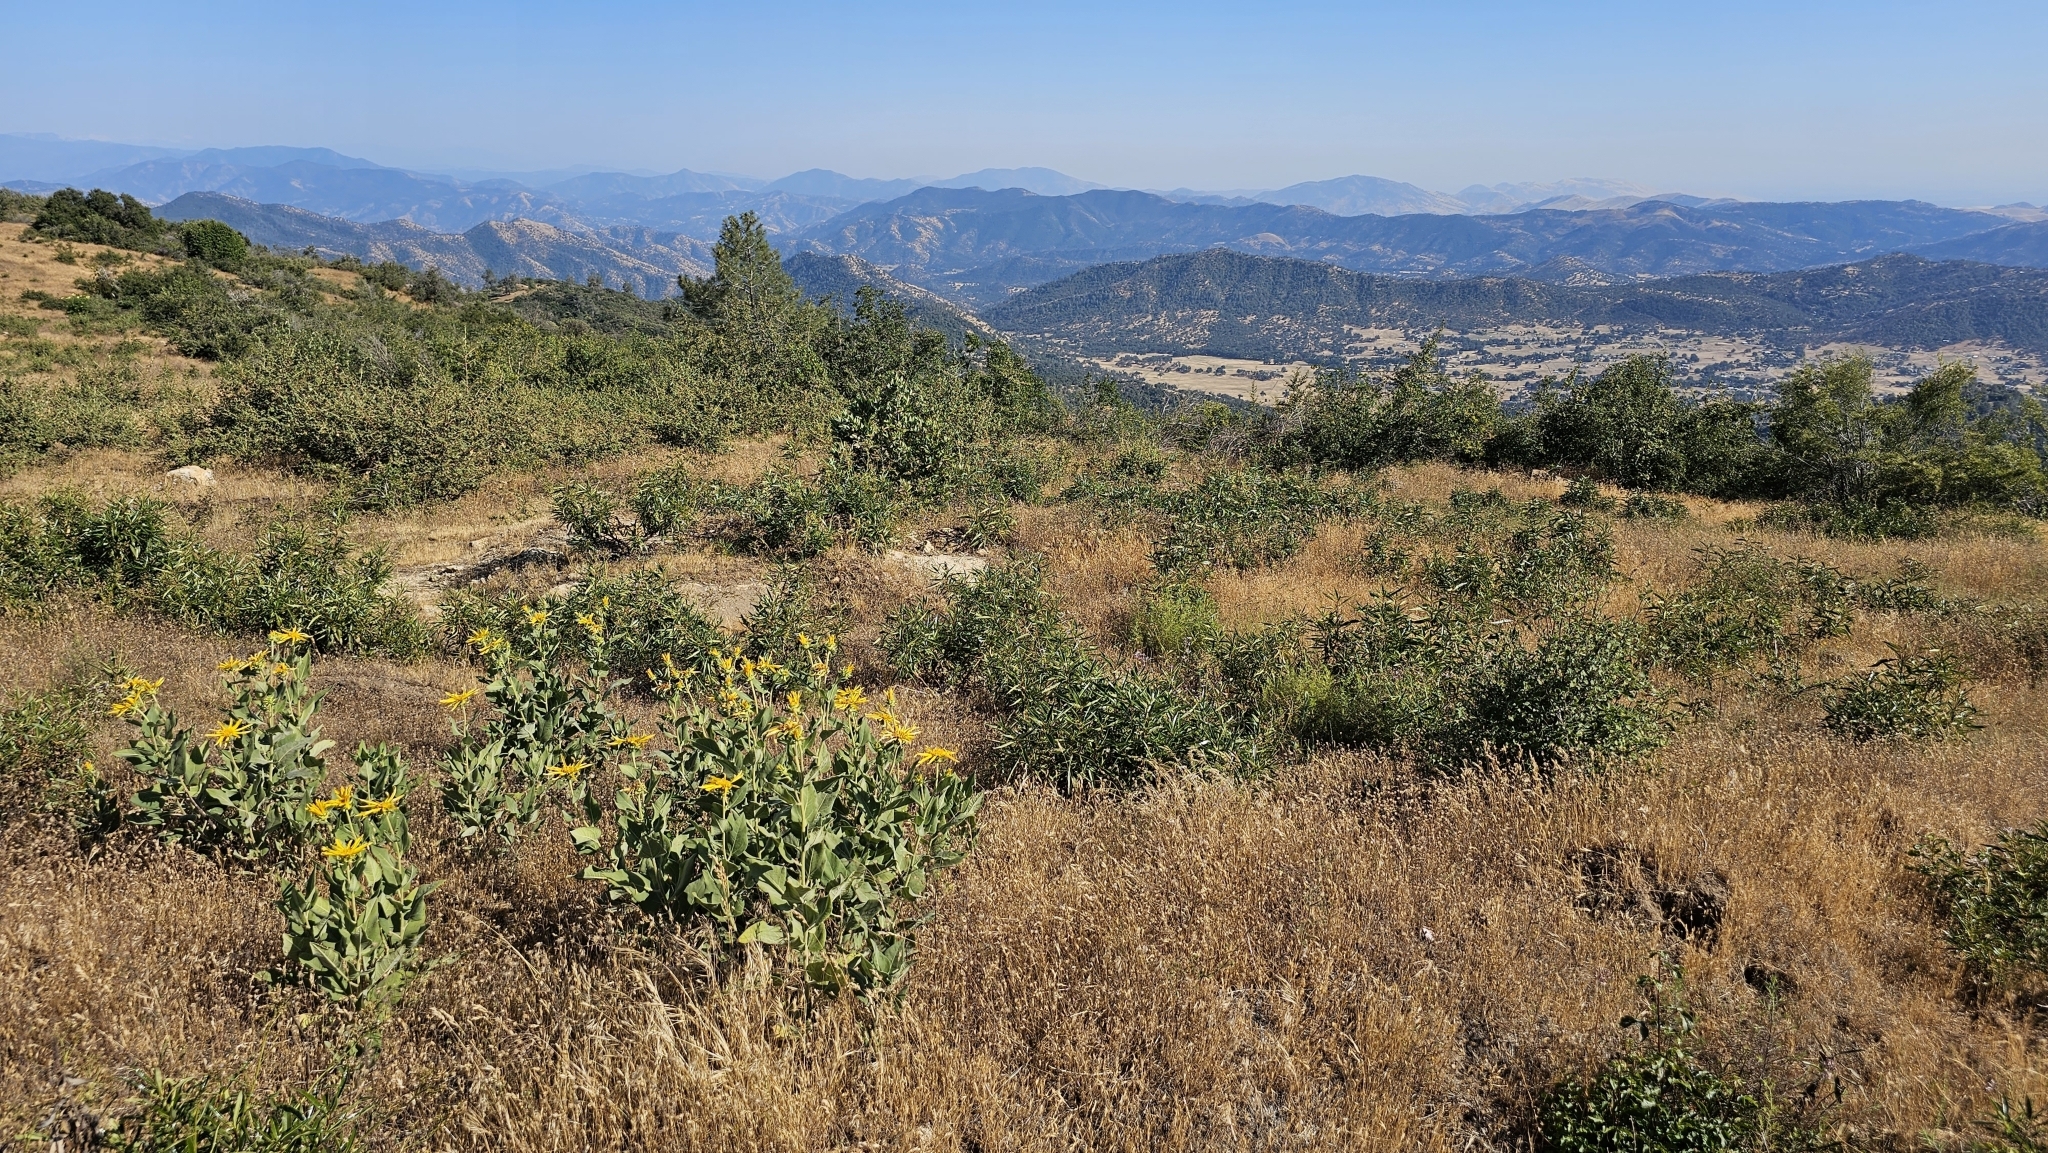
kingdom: Plantae
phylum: Tracheophyta
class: Magnoliopsida
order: Asterales
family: Asteraceae
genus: Agnorhiza
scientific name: Agnorhiza elata
